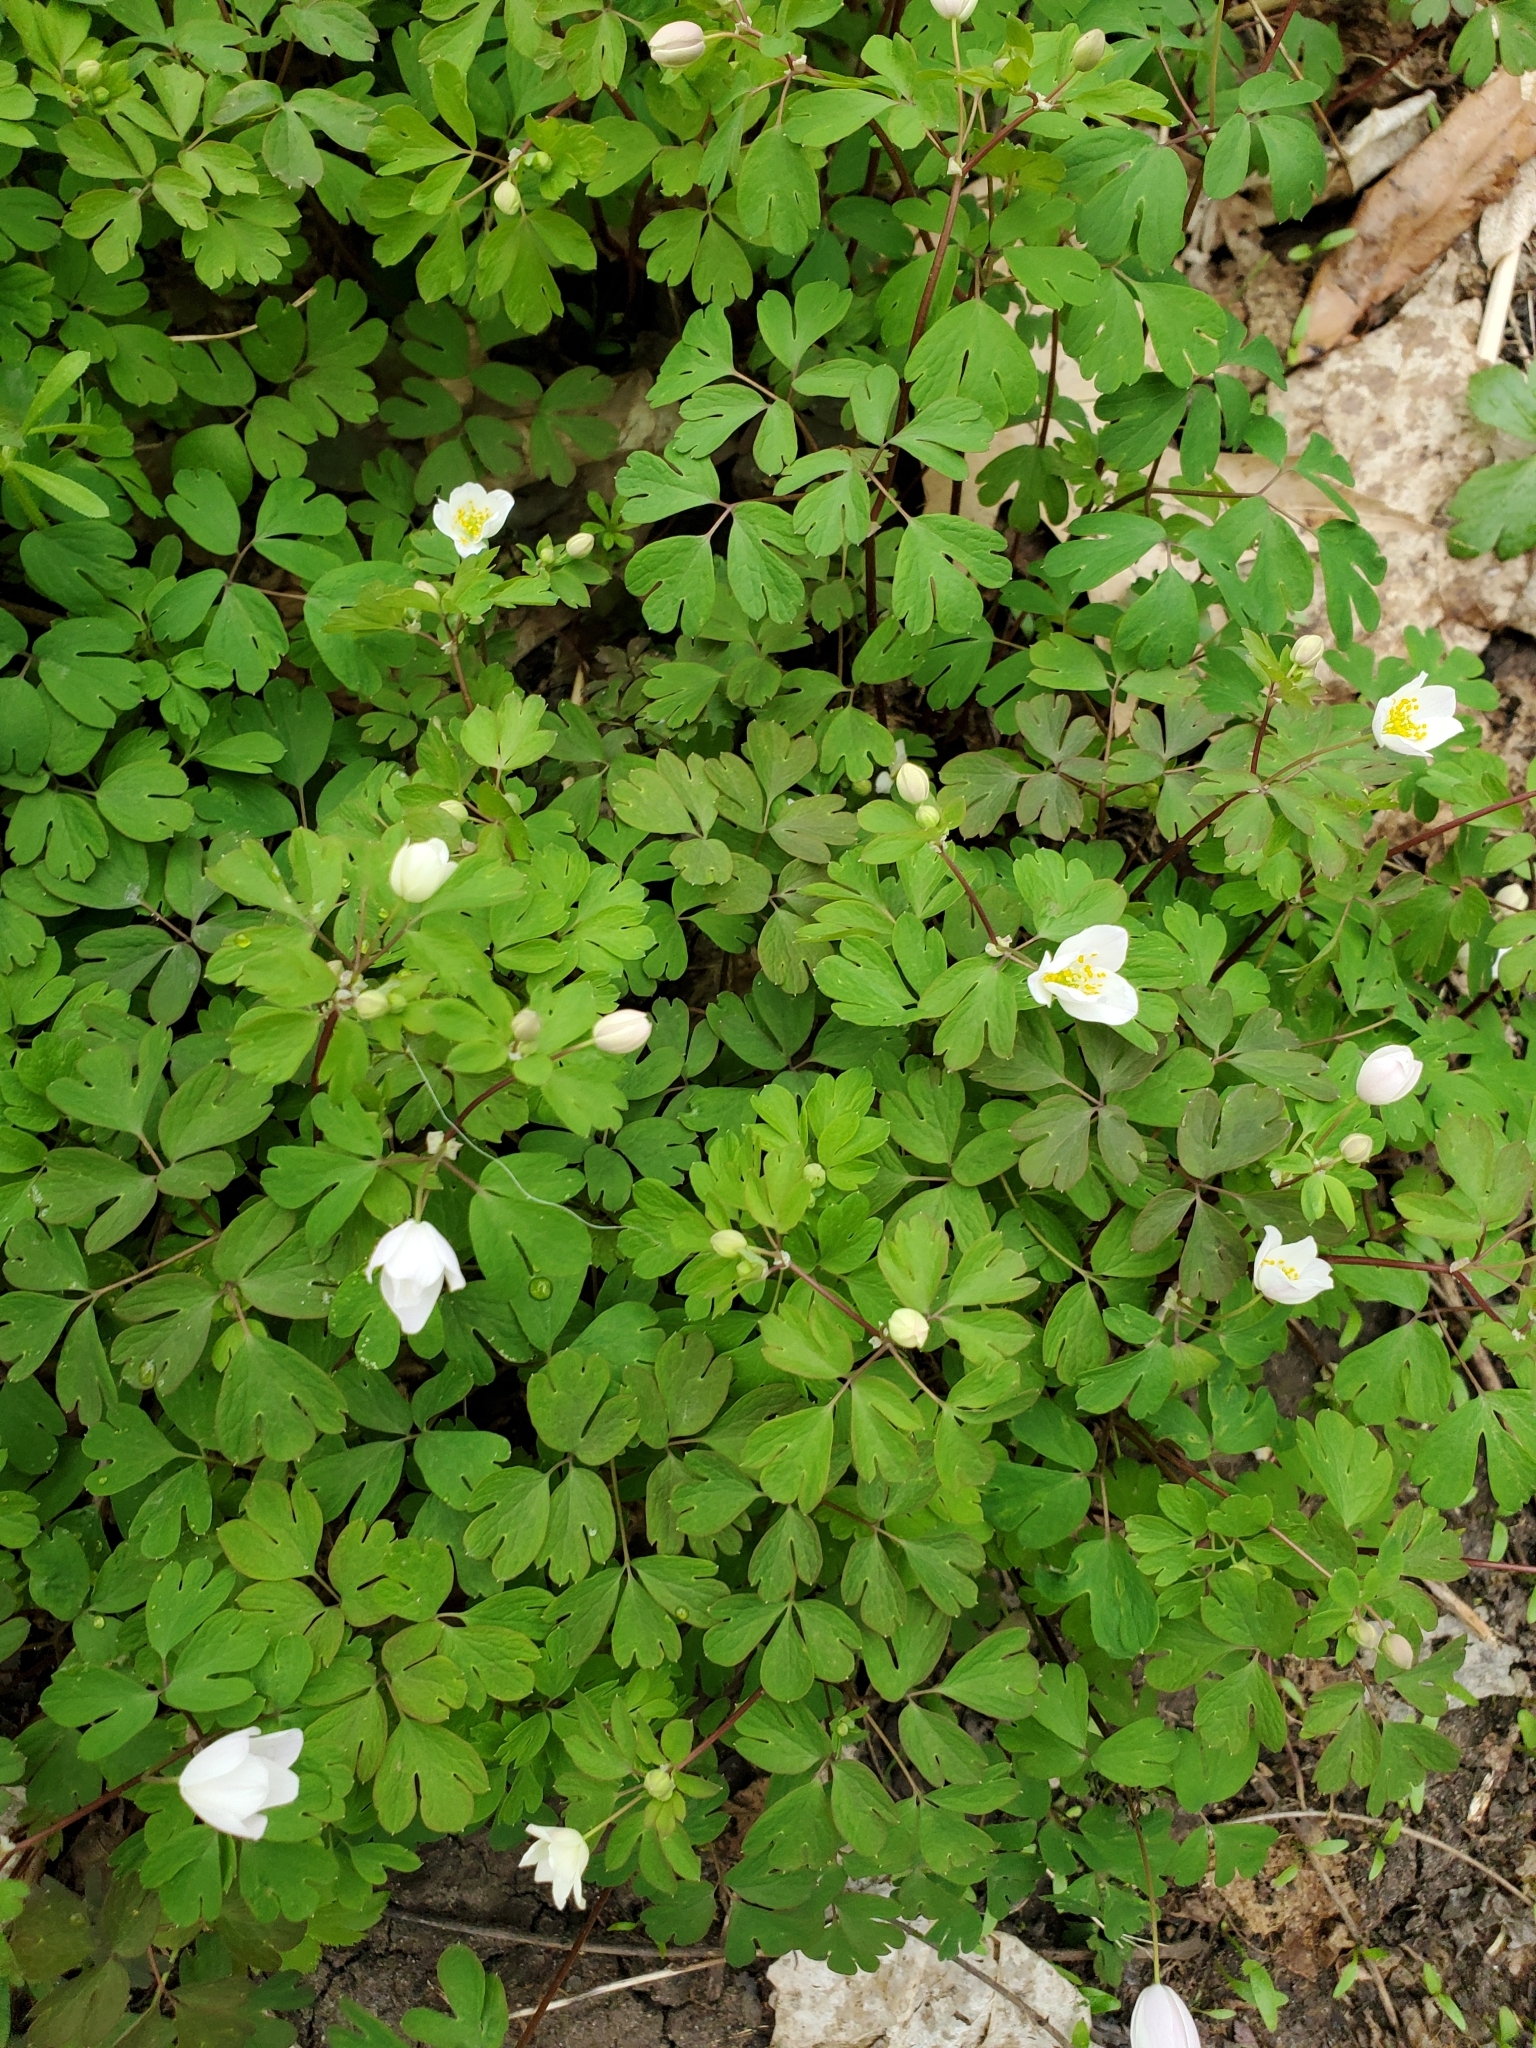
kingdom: Plantae
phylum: Tracheophyta
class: Magnoliopsida
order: Ranunculales
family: Ranunculaceae
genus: Enemion
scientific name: Enemion biternatum
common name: Eastern false rue-anemone
